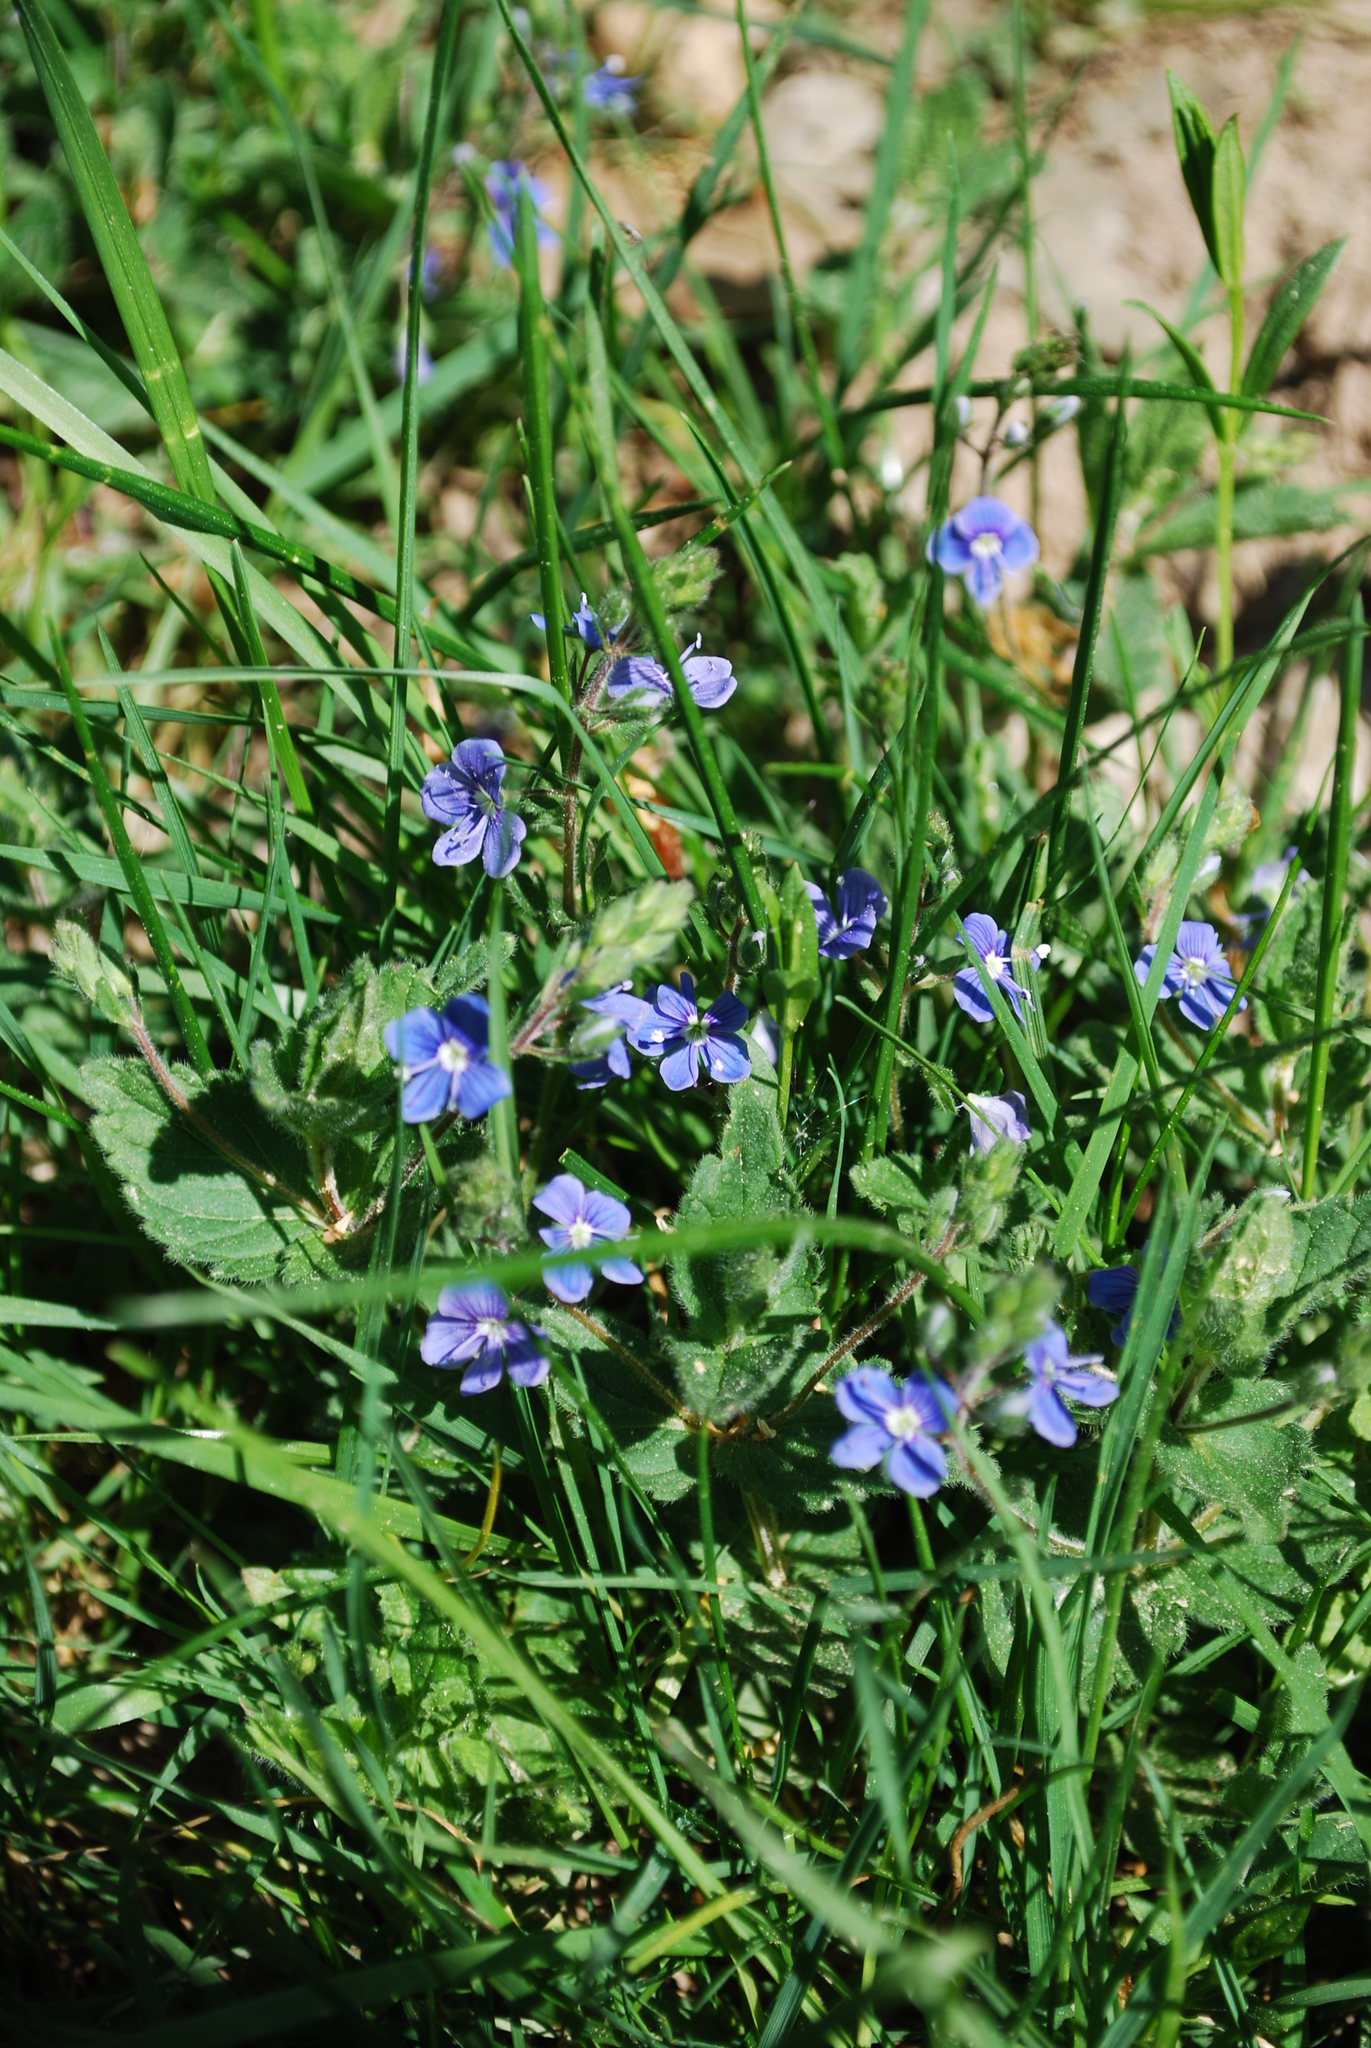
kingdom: Plantae
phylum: Tracheophyta
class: Magnoliopsida
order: Lamiales
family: Plantaginaceae
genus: Veronica
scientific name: Veronica chamaedrys
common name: Germander speedwell
